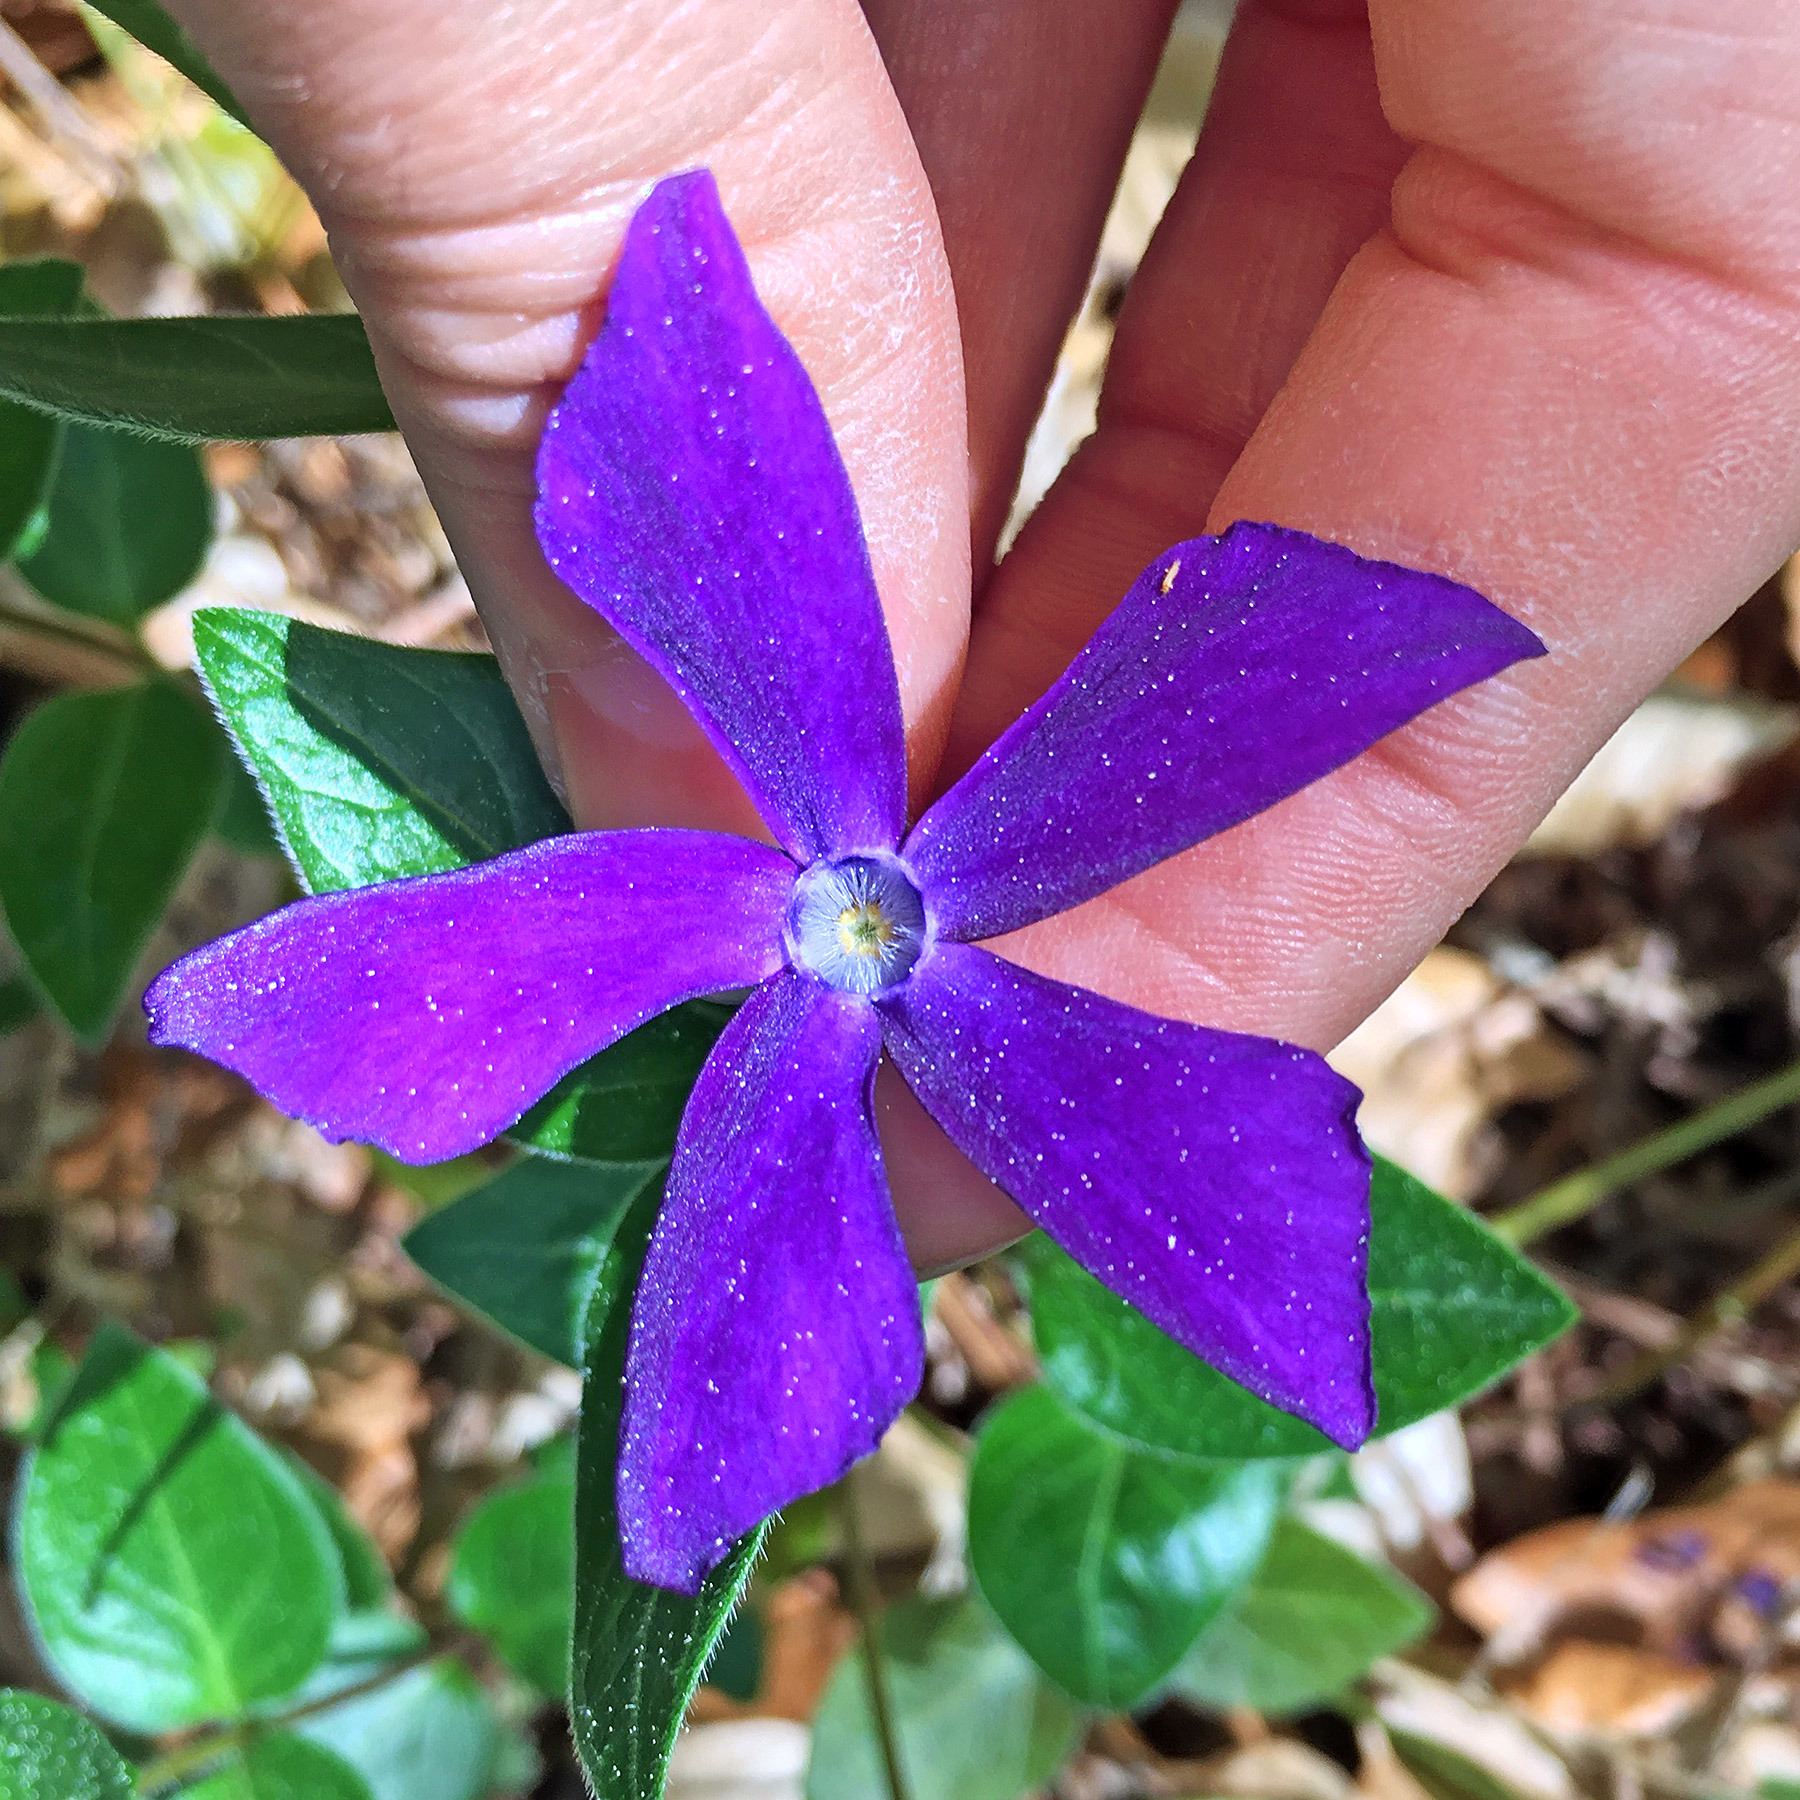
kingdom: Plantae
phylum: Tracheophyta
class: Magnoliopsida
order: Gentianales
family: Apocynaceae
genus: Vinca
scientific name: Vinca major
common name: Greater periwinkle
